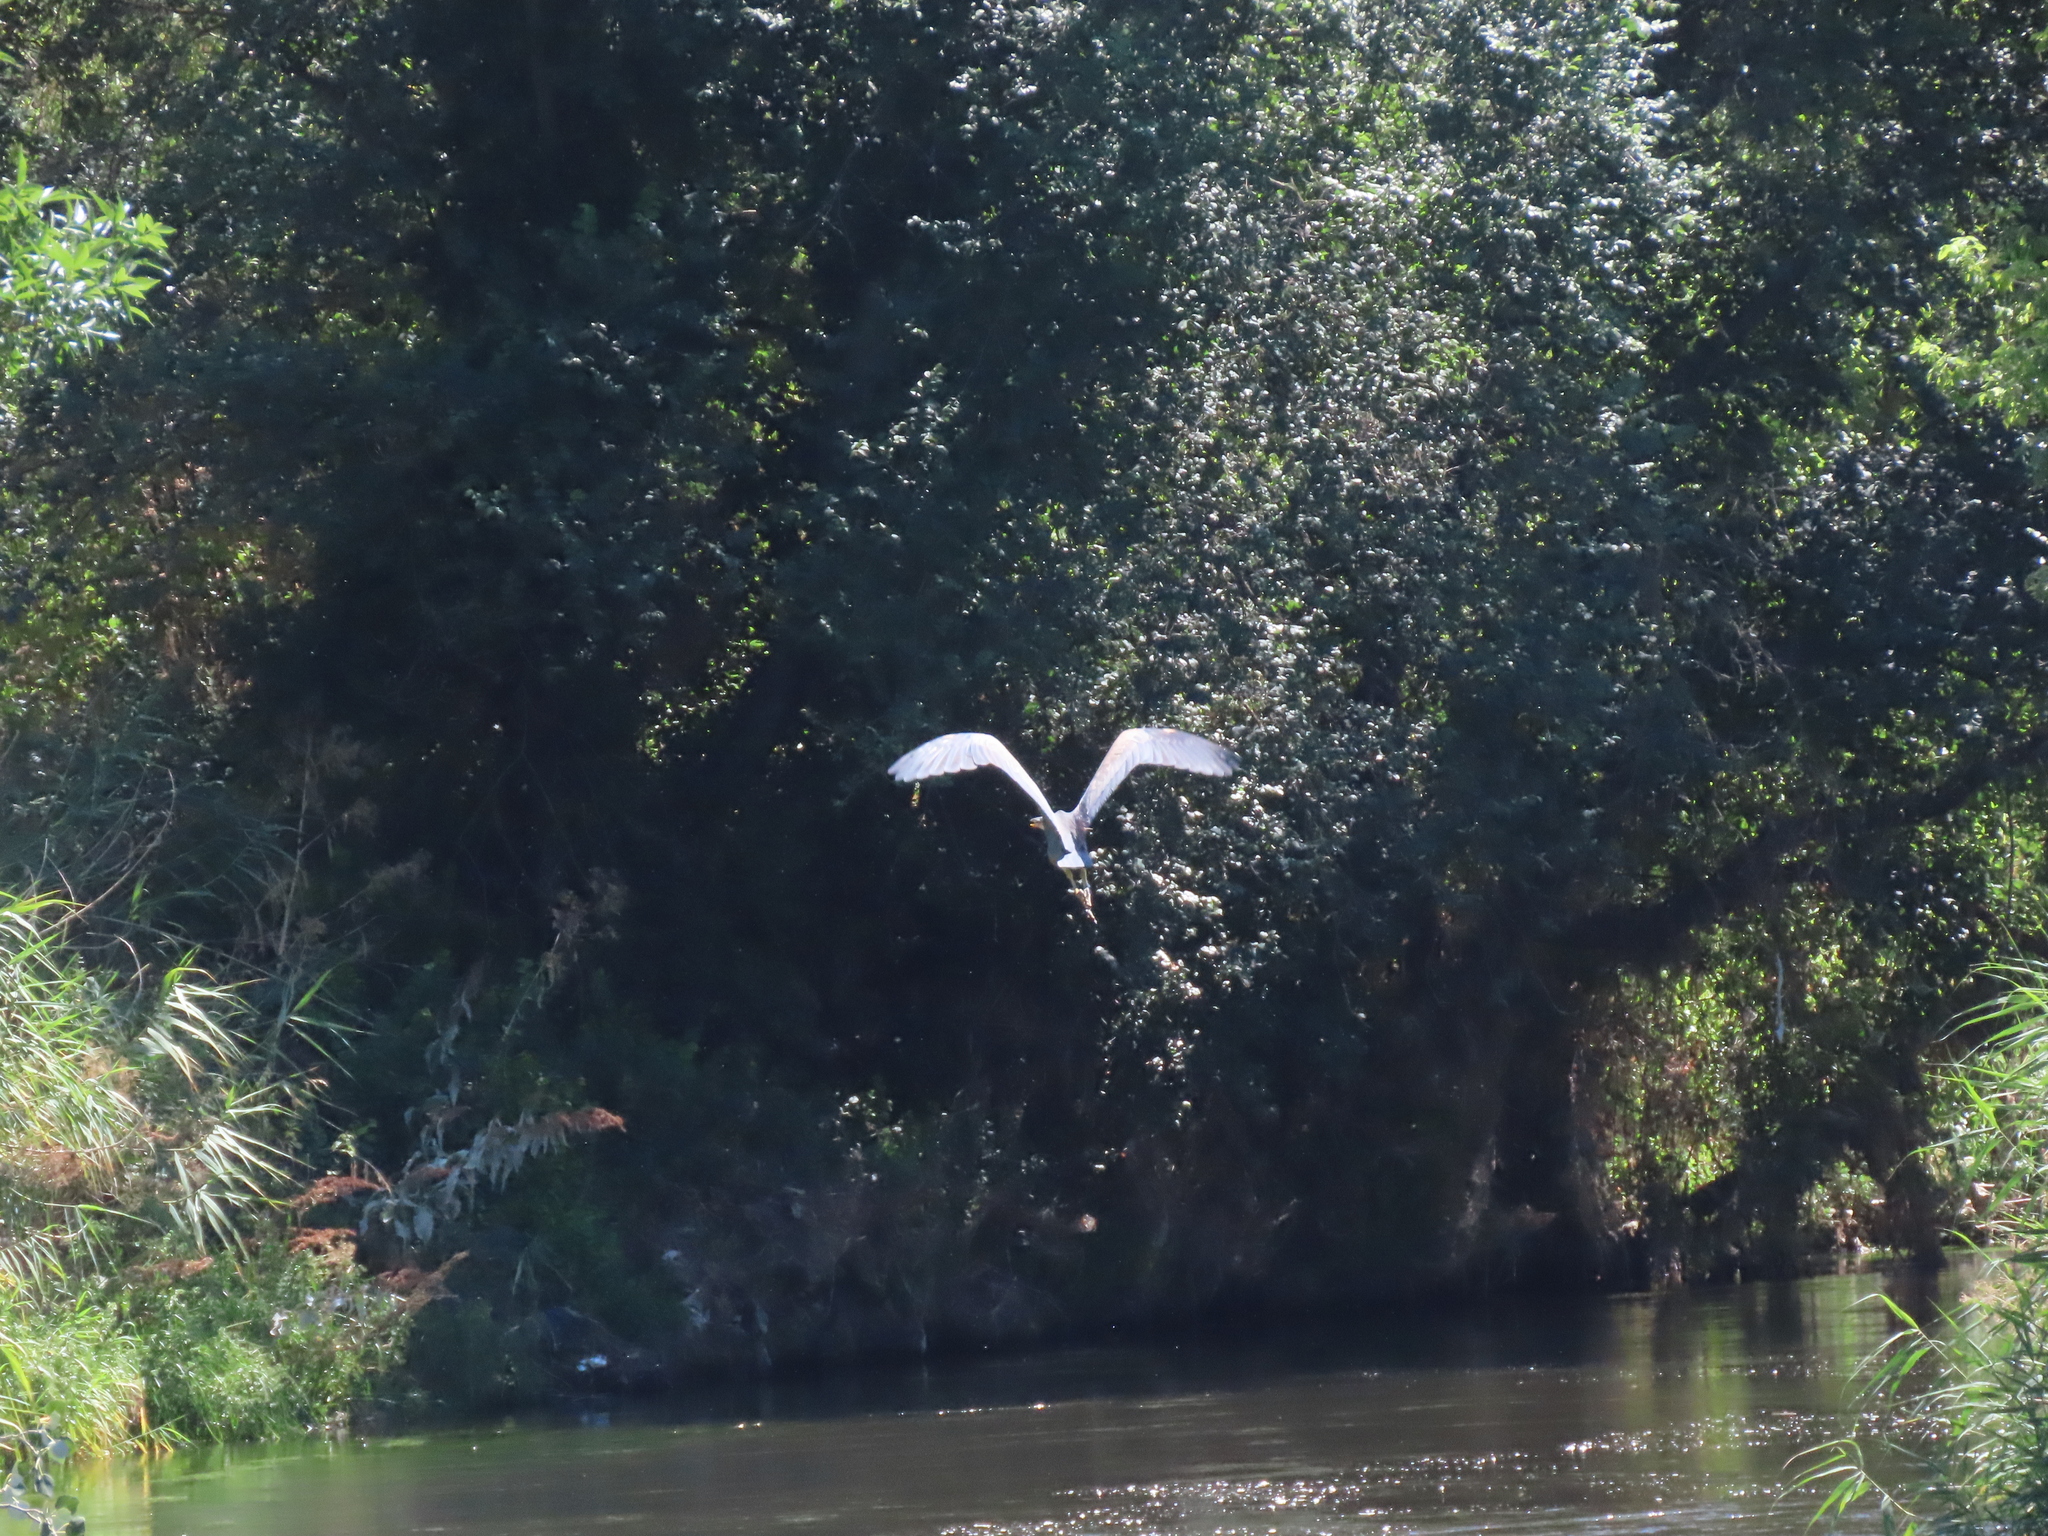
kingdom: Animalia
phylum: Chordata
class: Aves
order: Pelecaniformes
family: Ardeidae
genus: Ardea
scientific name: Ardea purpurea
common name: Purple heron
